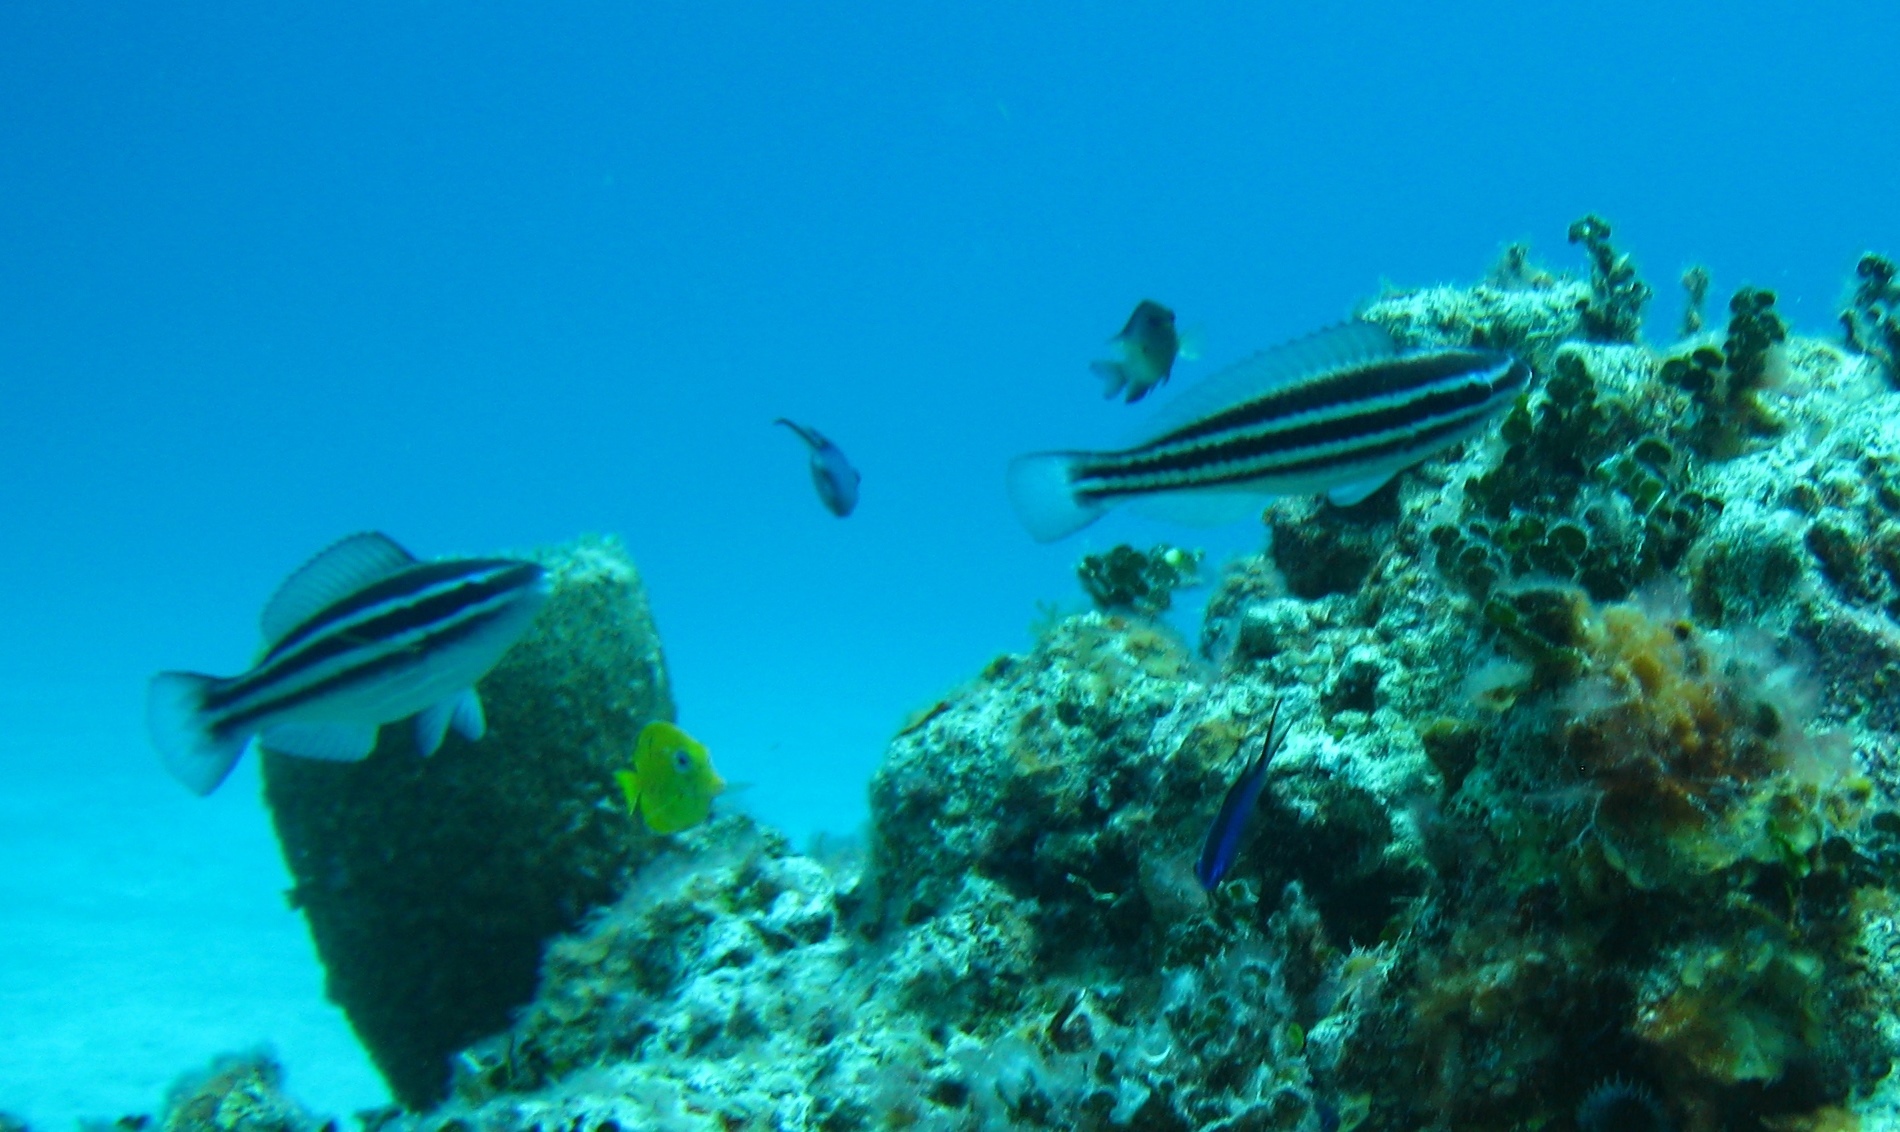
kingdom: Animalia
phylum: Chordata
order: Perciformes
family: Scaridae
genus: Scarus
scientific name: Scarus iseri
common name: Striped parrotfish
